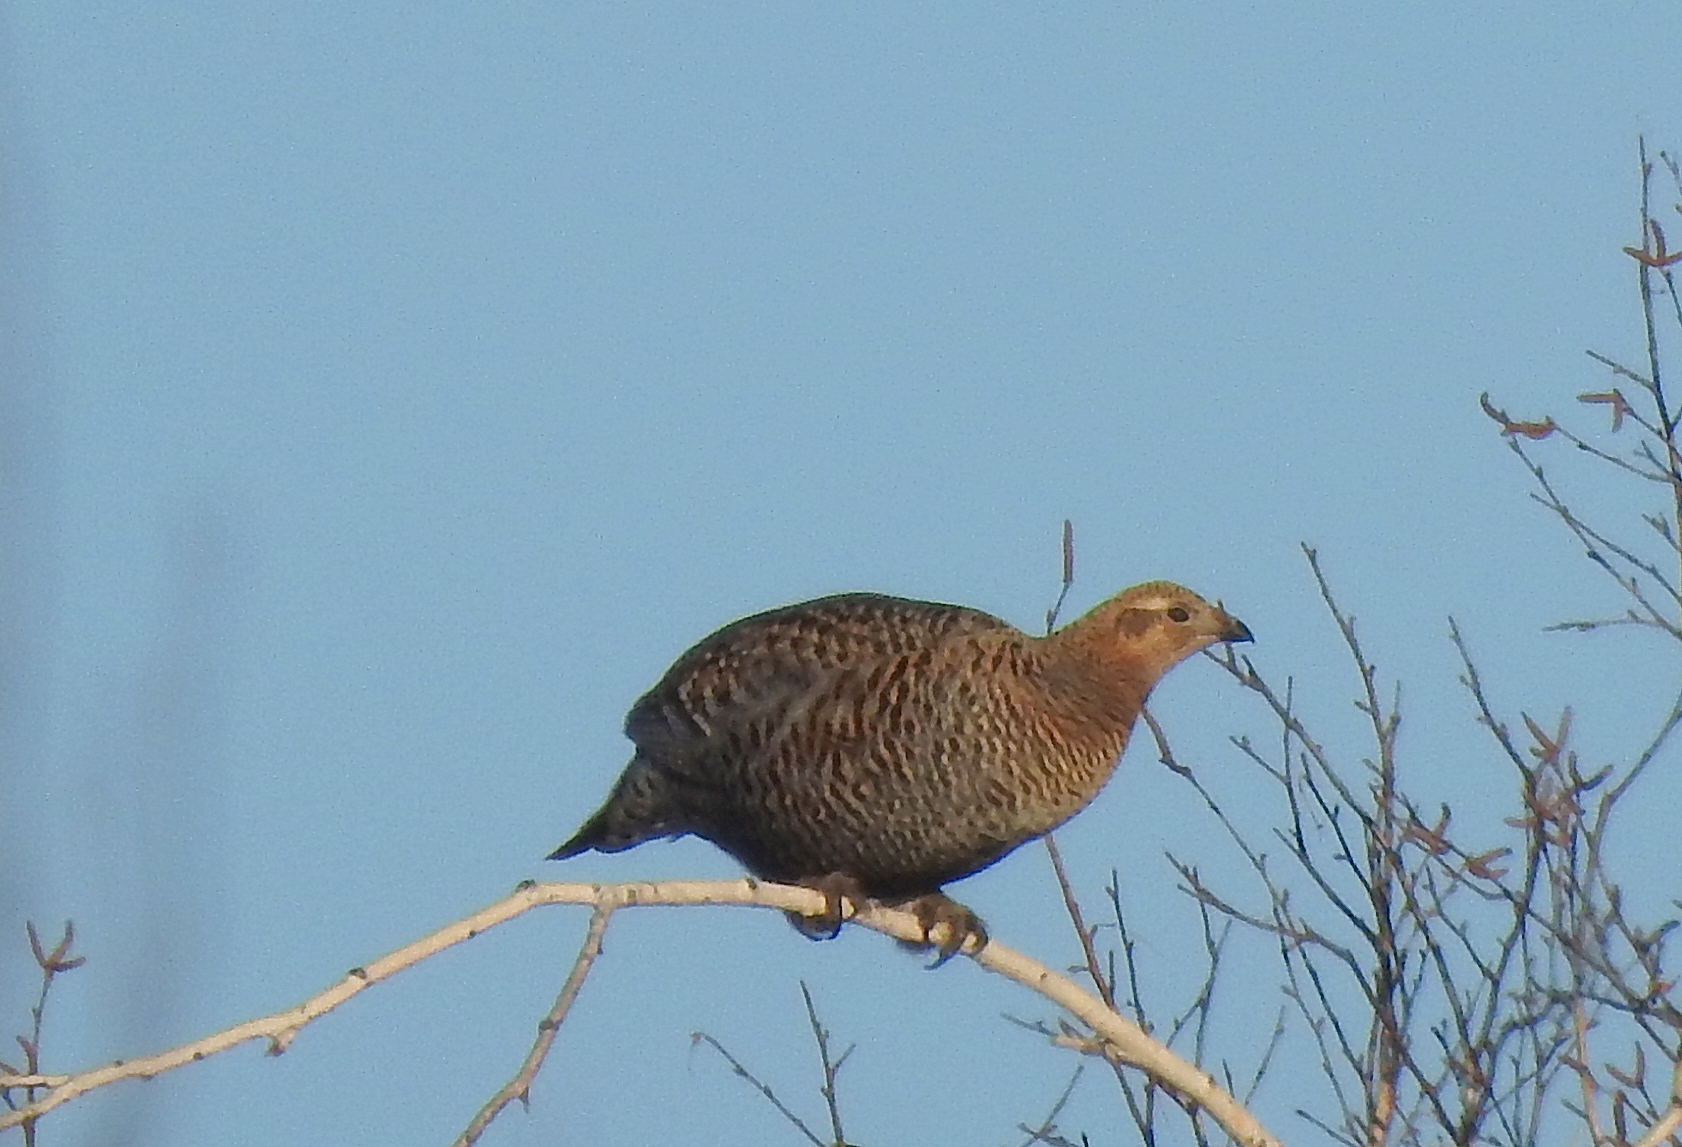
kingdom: Animalia
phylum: Chordata
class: Aves
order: Galliformes
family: Phasianidae
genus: Lyrurus
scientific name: Lyrurus tetrix
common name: Black grouse
